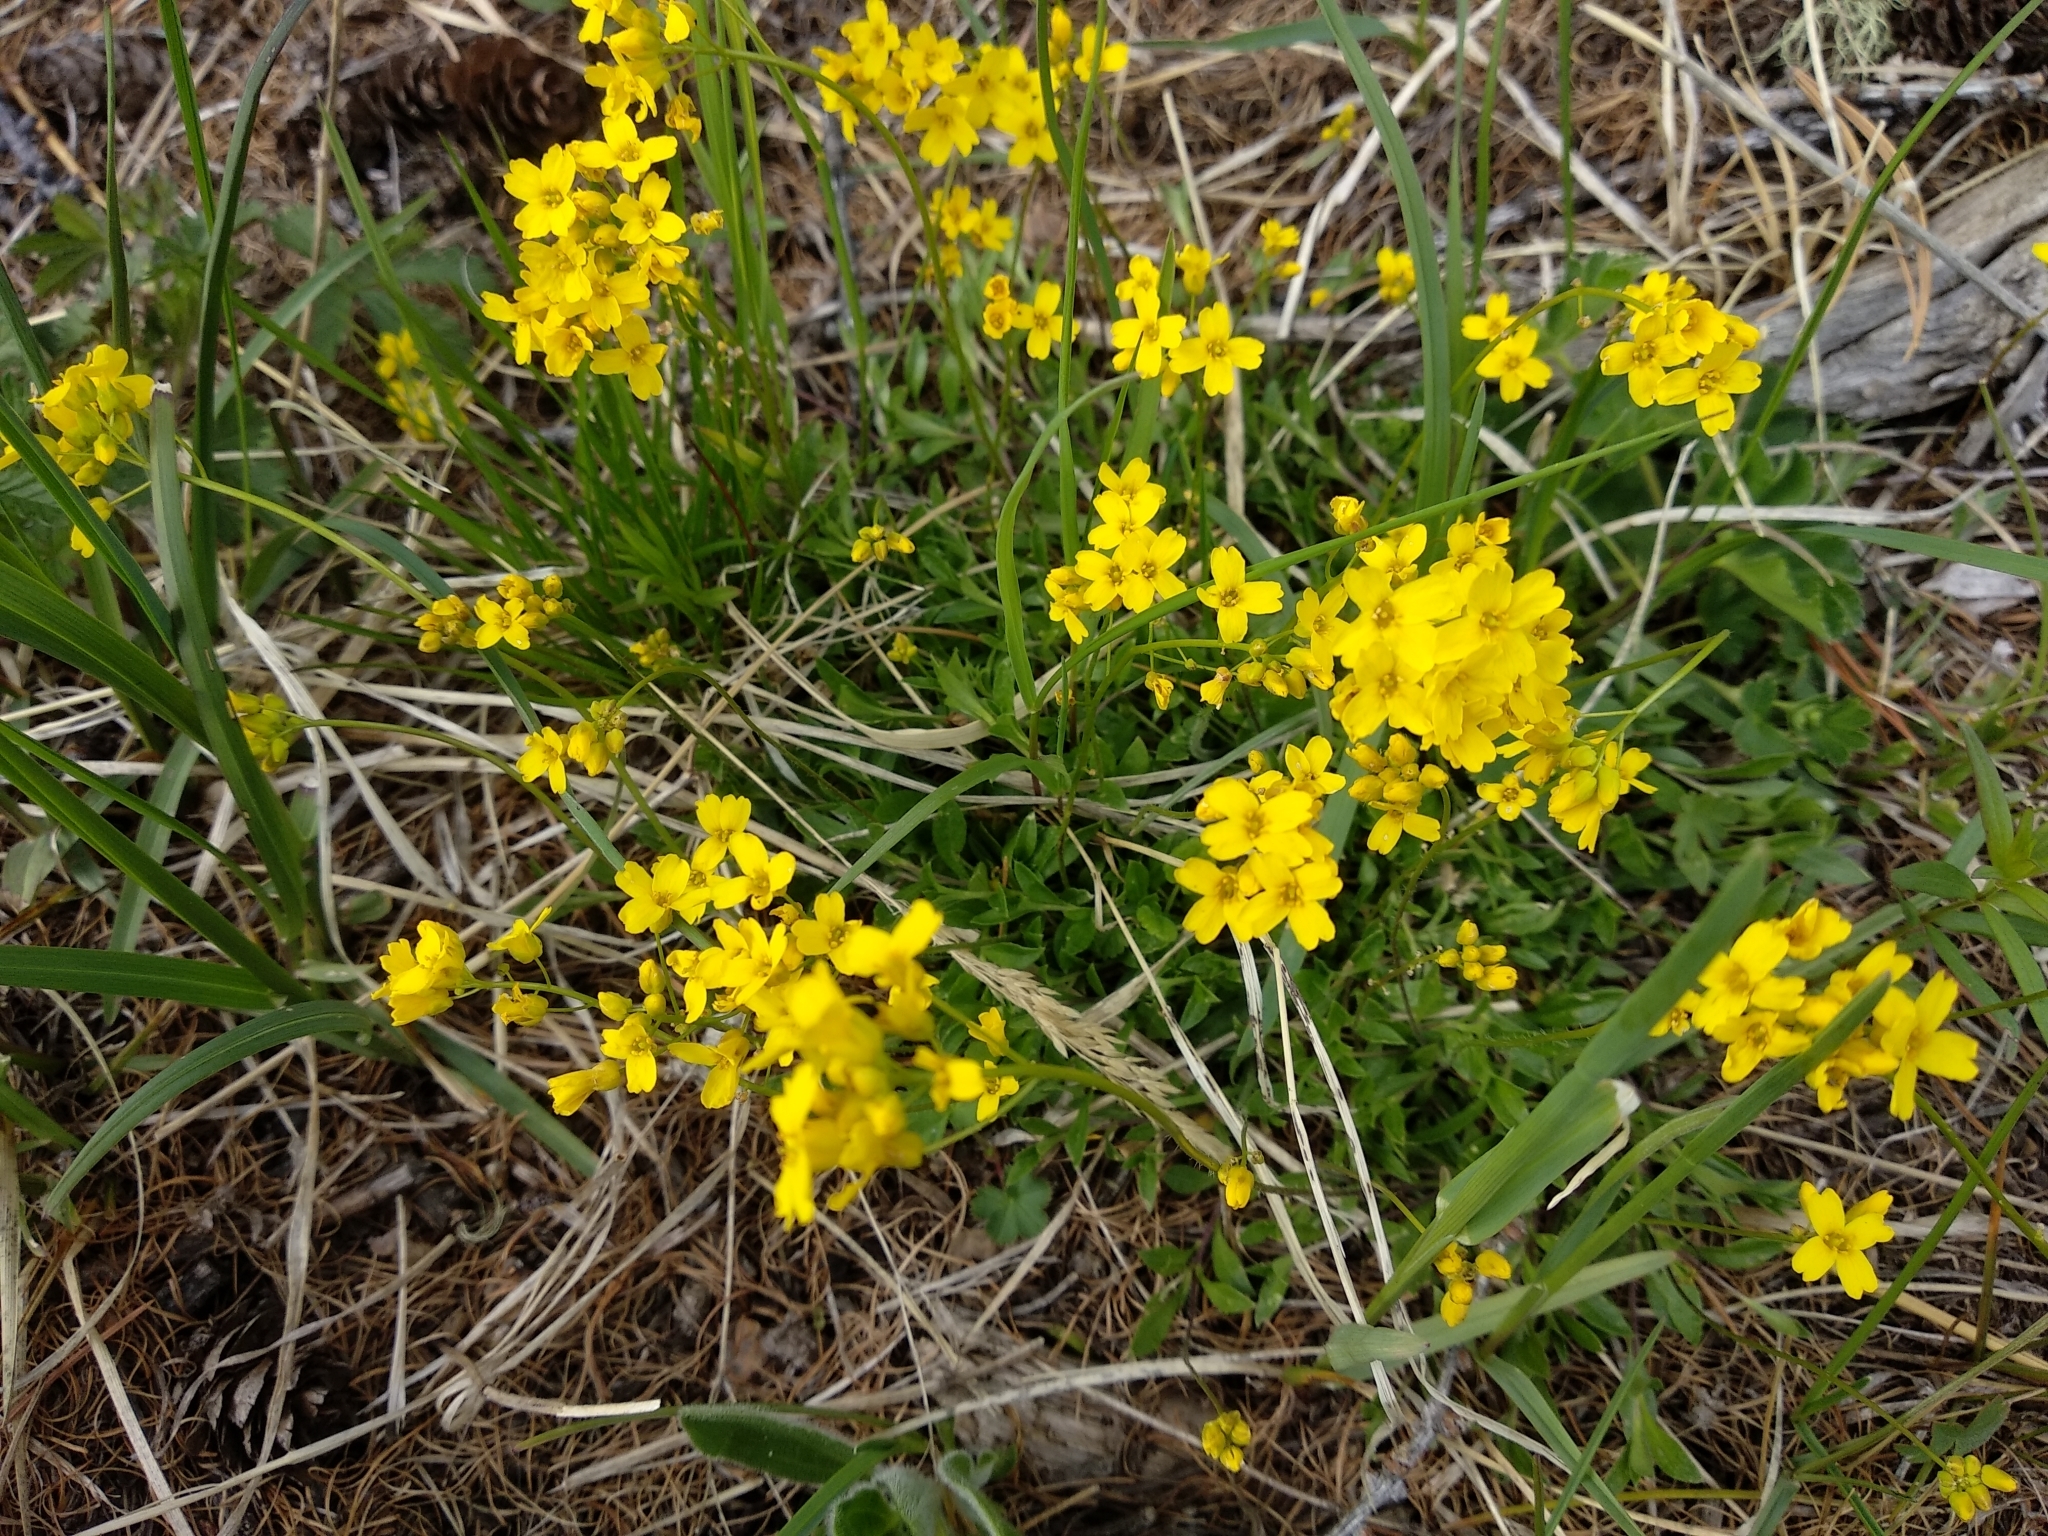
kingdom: Plantae
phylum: Tracheophyta
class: Magnoliopsida
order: Brassicales
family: Brassicaceae
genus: Draba
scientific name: Draba sibirica
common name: Siberian draba
